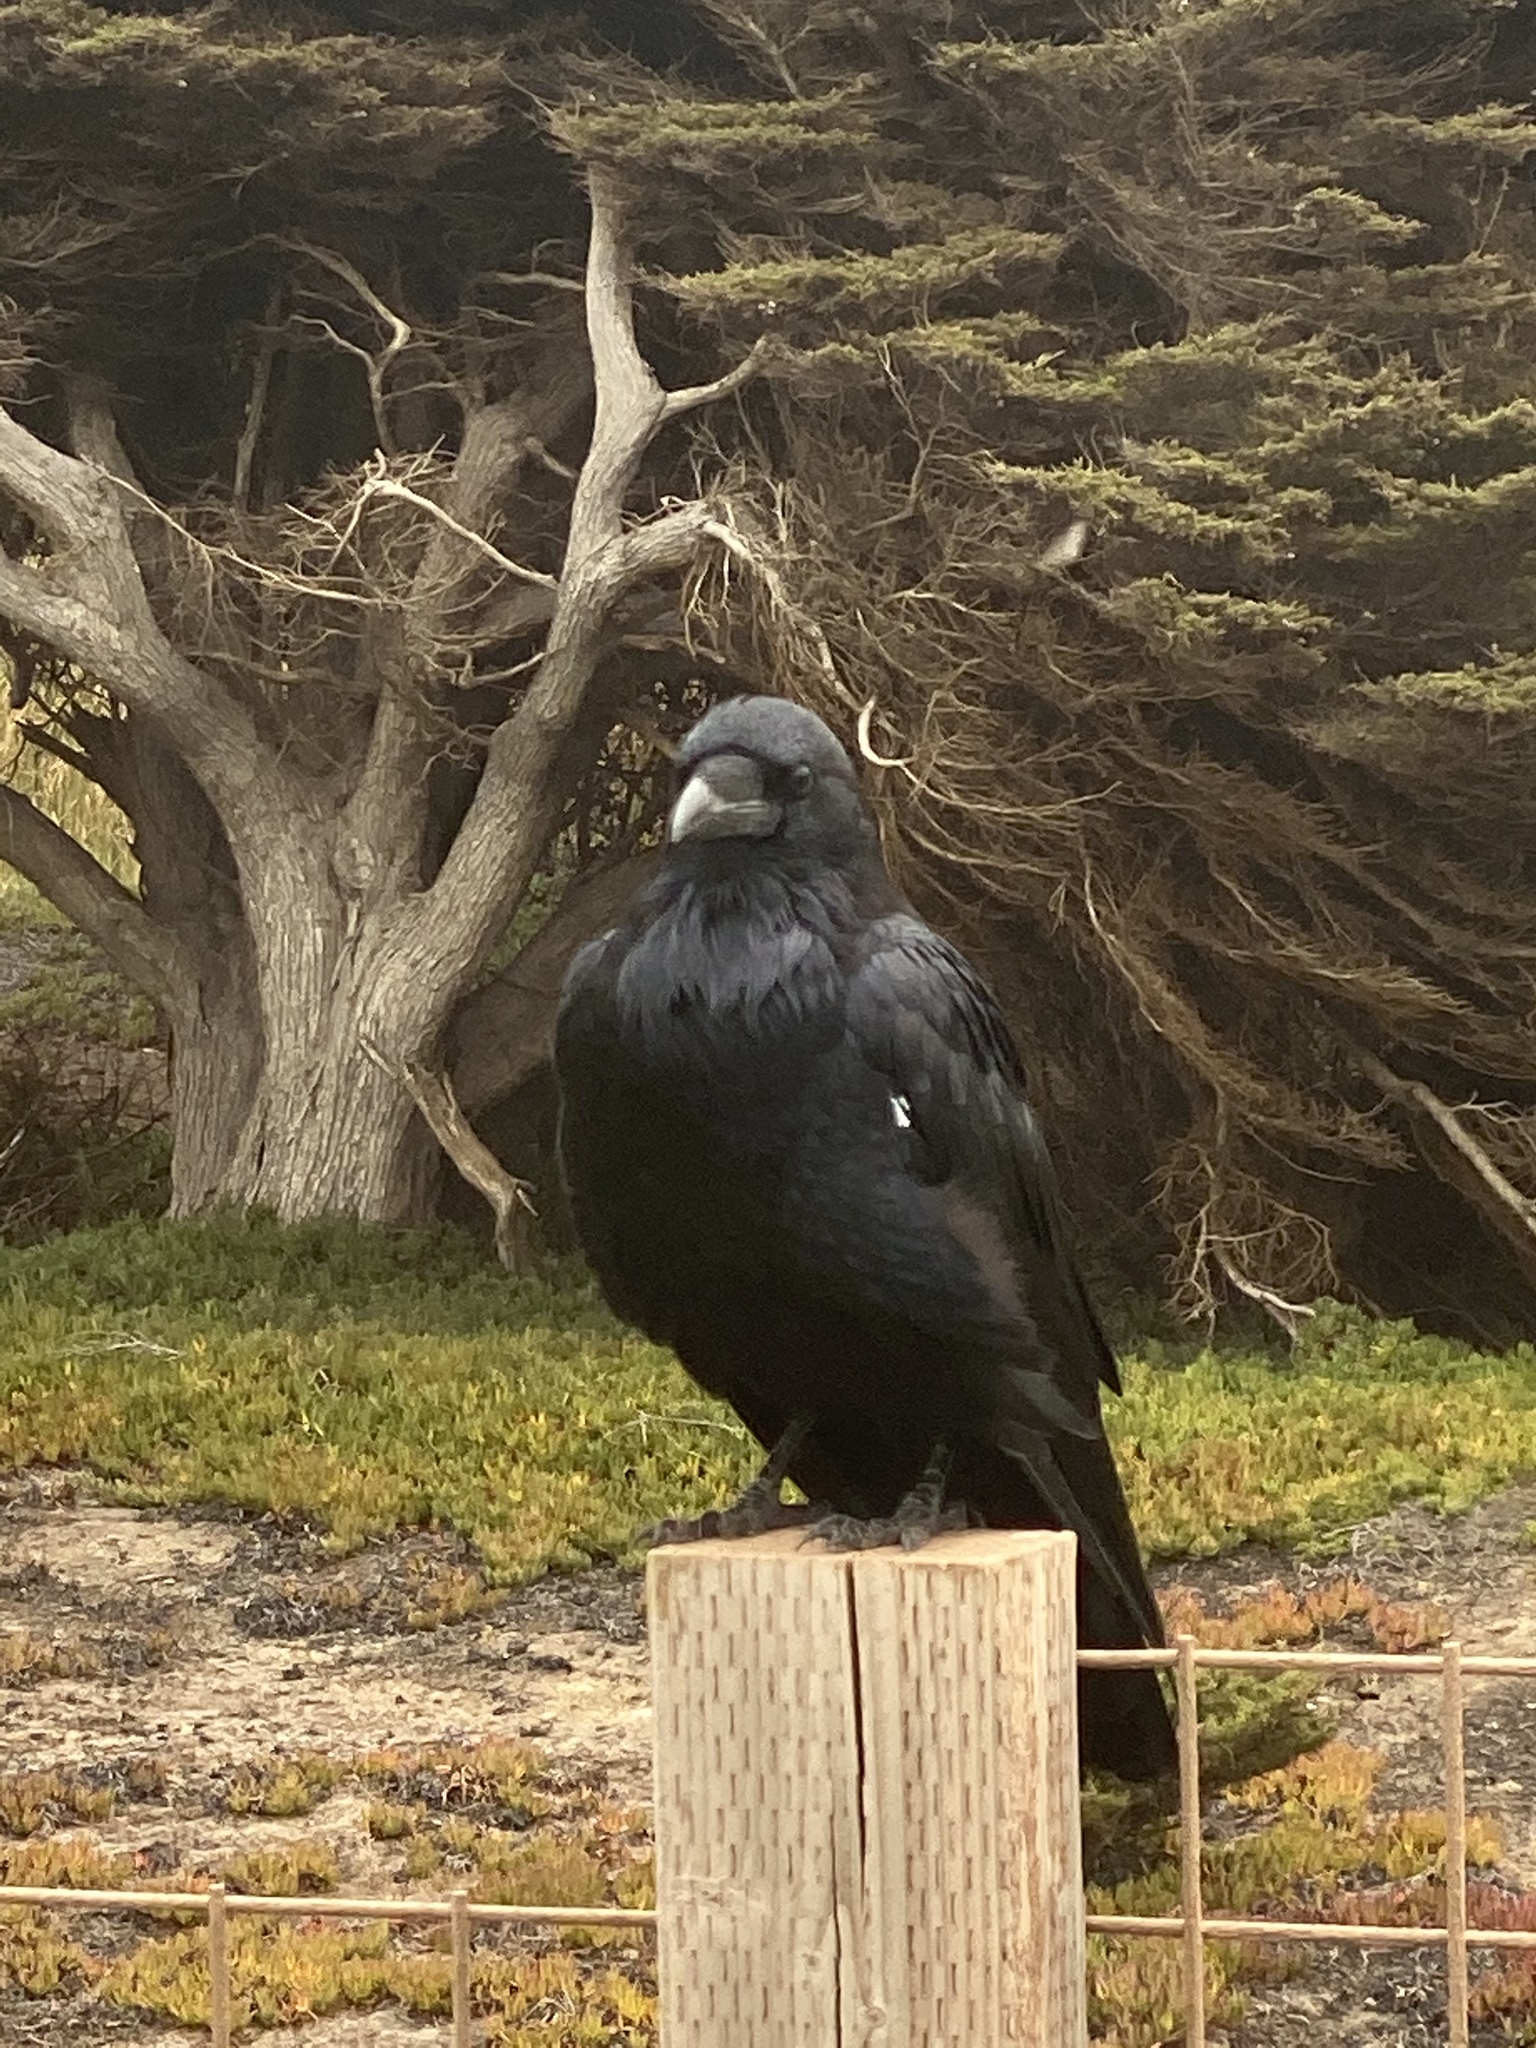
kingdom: Animalia
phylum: Chordata
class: Aves
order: Passeriformes
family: Corvidae
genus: Corvus
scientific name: Corvus corax
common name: Common raven
